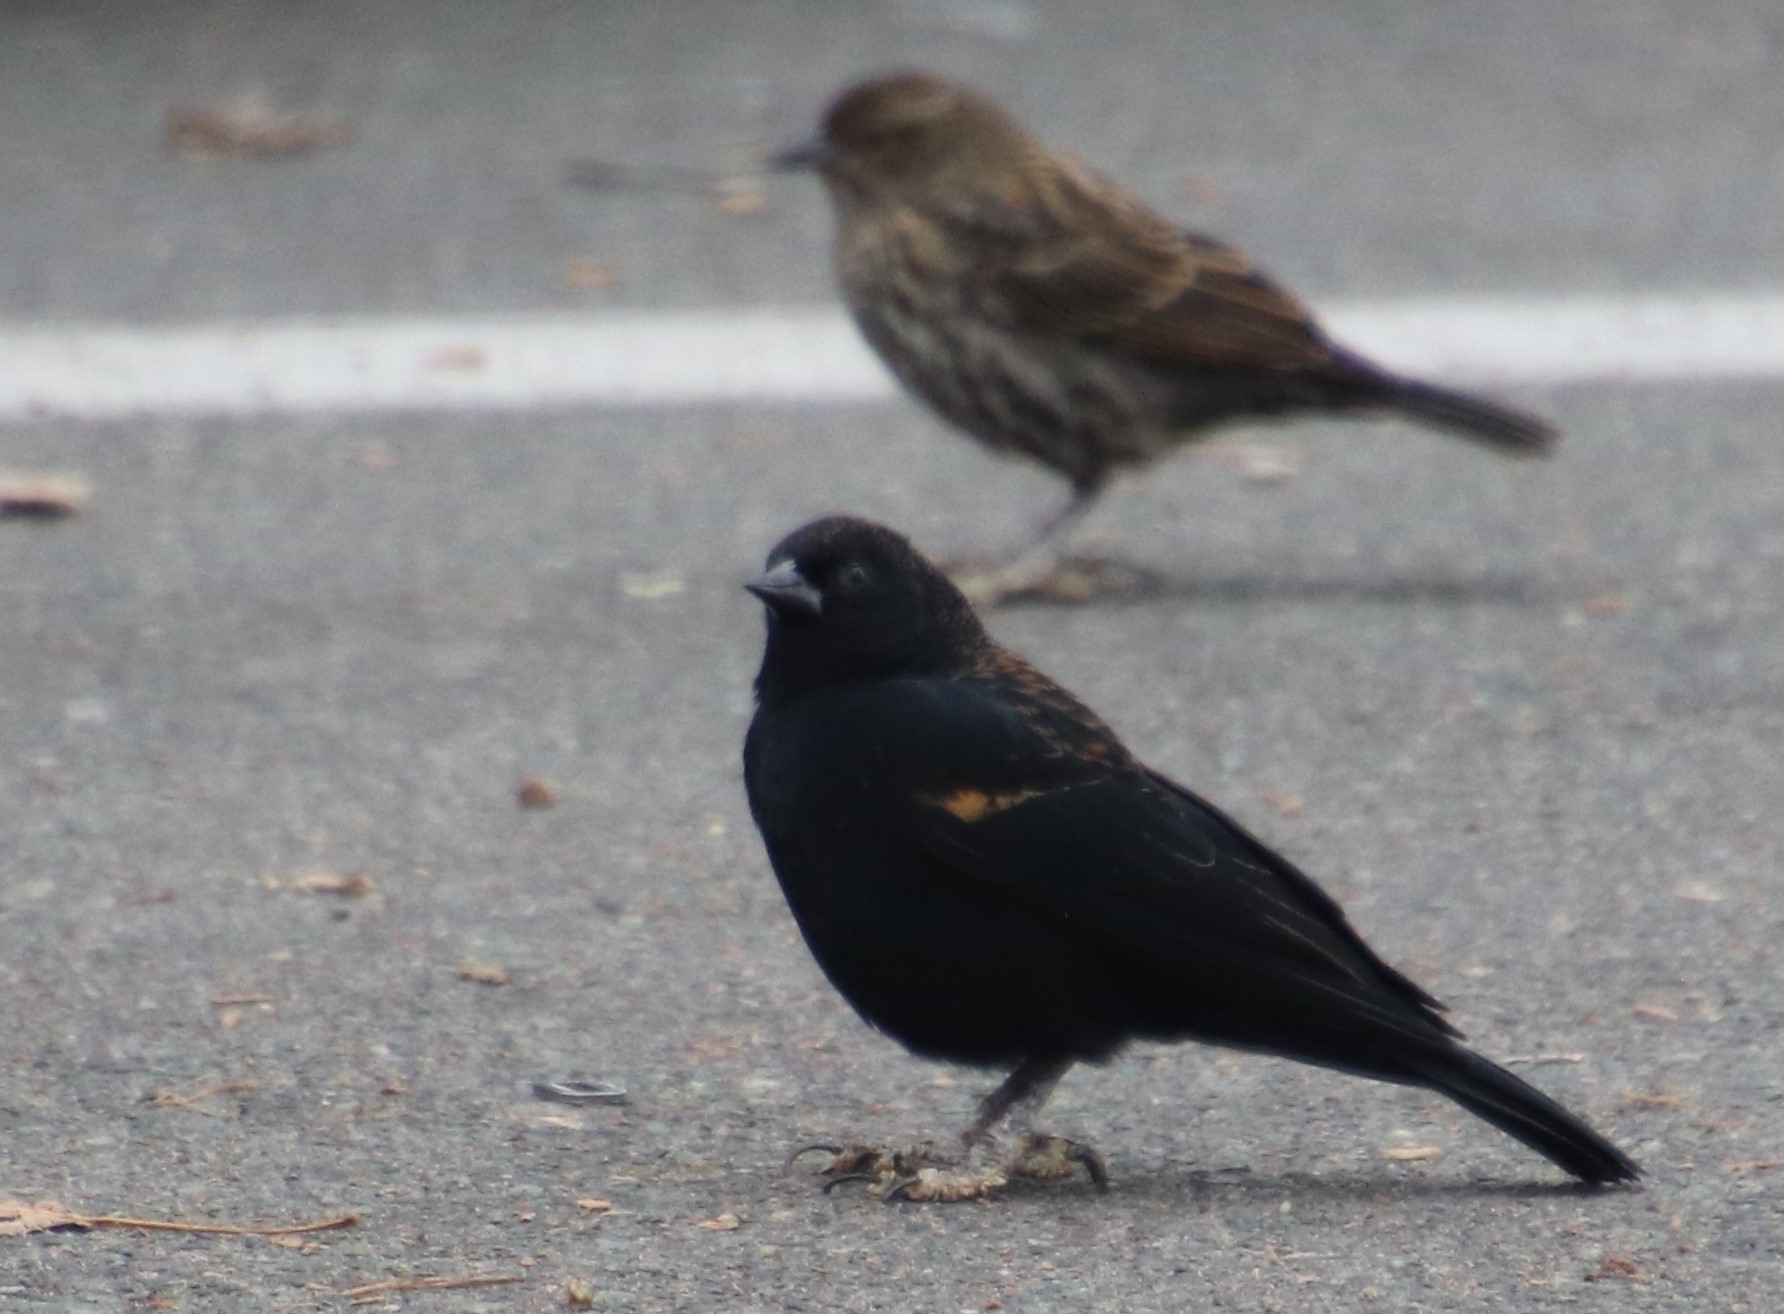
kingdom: Animalia
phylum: Chordata
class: Aves
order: Passeriformes
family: Icteridae
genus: Agelaius
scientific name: Agelaius phoeniceus
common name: Red-winged blackbird
